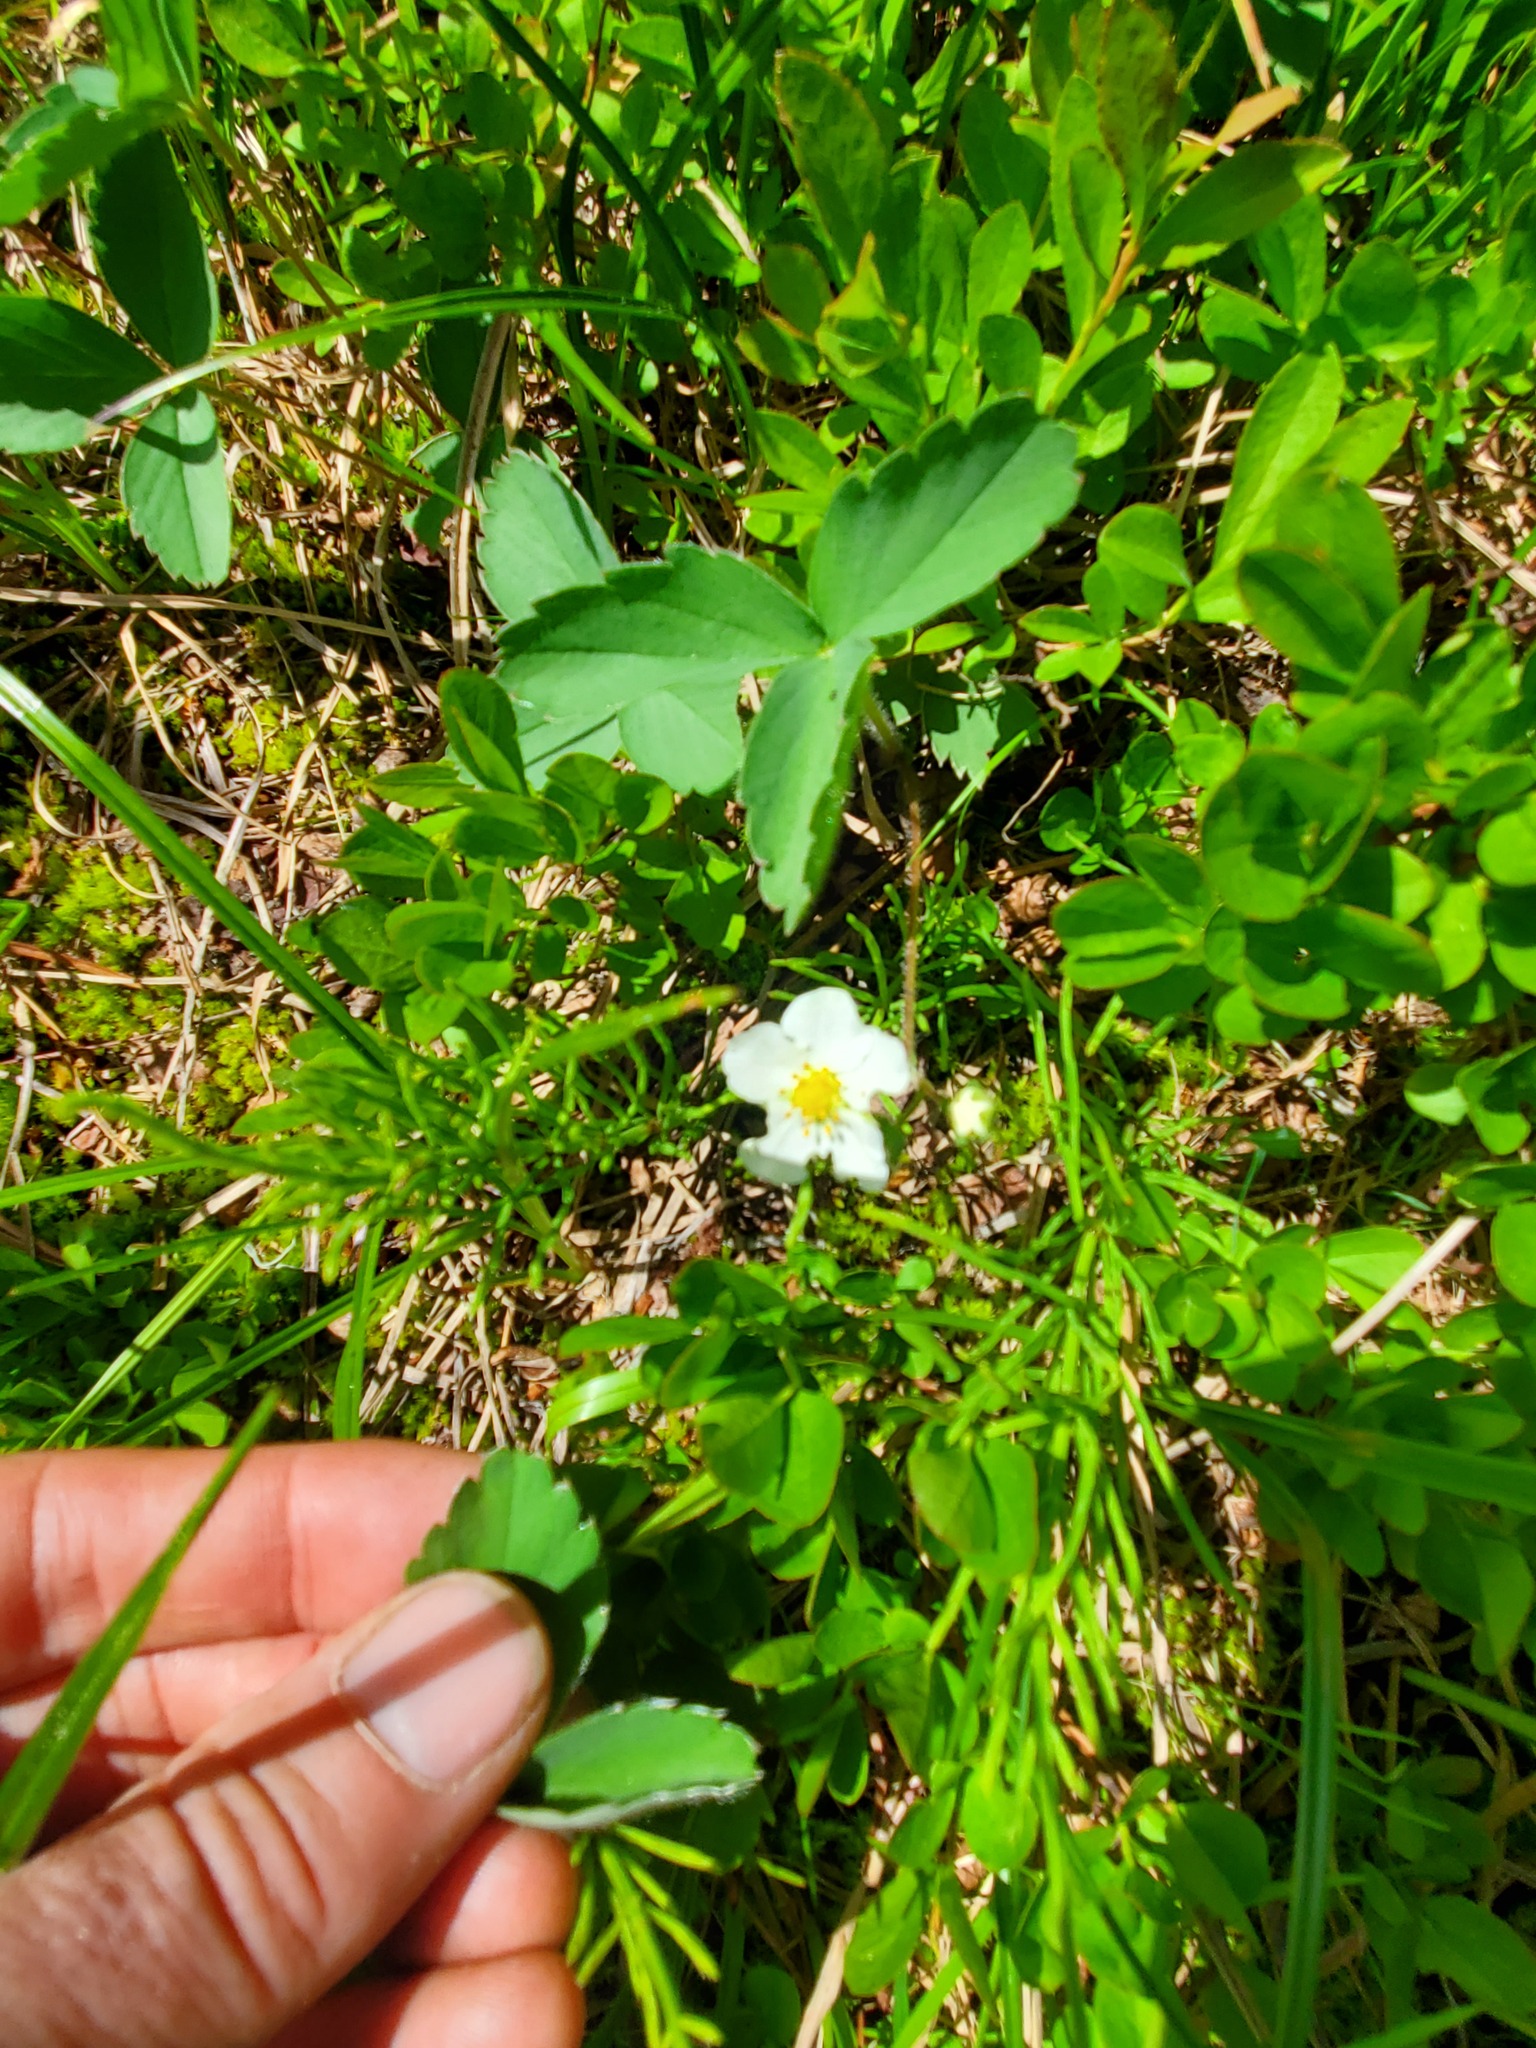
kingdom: Plantae
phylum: Tracheophyta
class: Magnoliopsida
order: Rosales
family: Rosaceae
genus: Fragaria
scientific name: Fragaria virginiana
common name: Thickleaved wild strawberry
